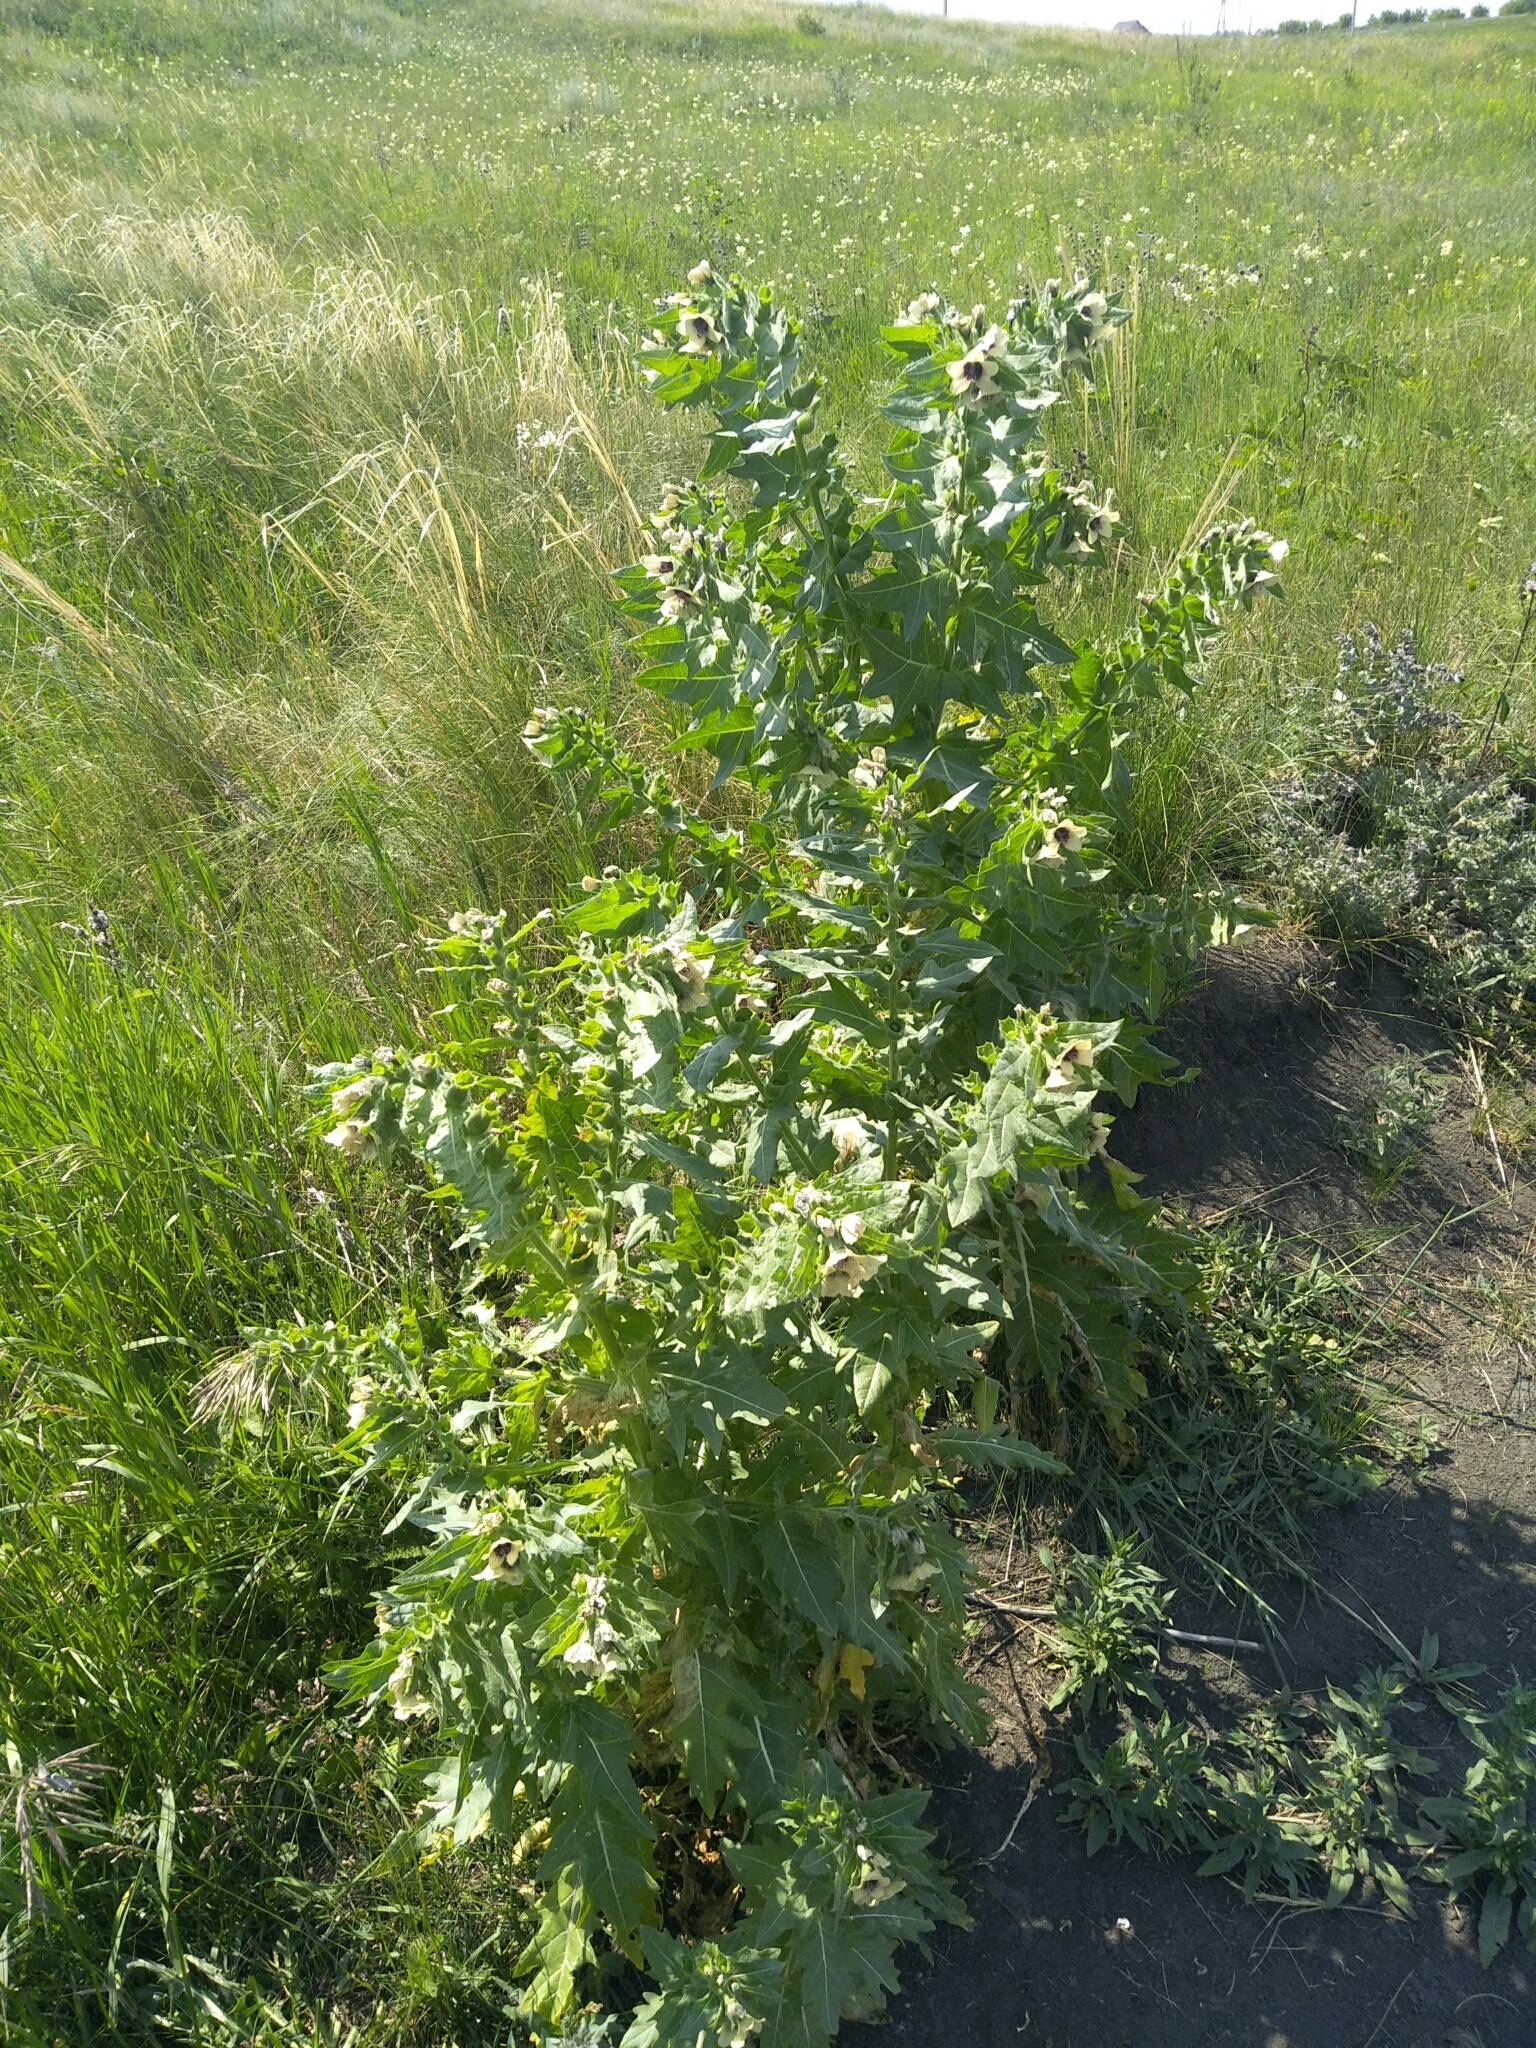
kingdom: Plantae
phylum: Tracheophyta
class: Magnoliopsida
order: Solanales
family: Solanaceae
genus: Hyoscyamus
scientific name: Hyoscyamus niger
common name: Henbane
